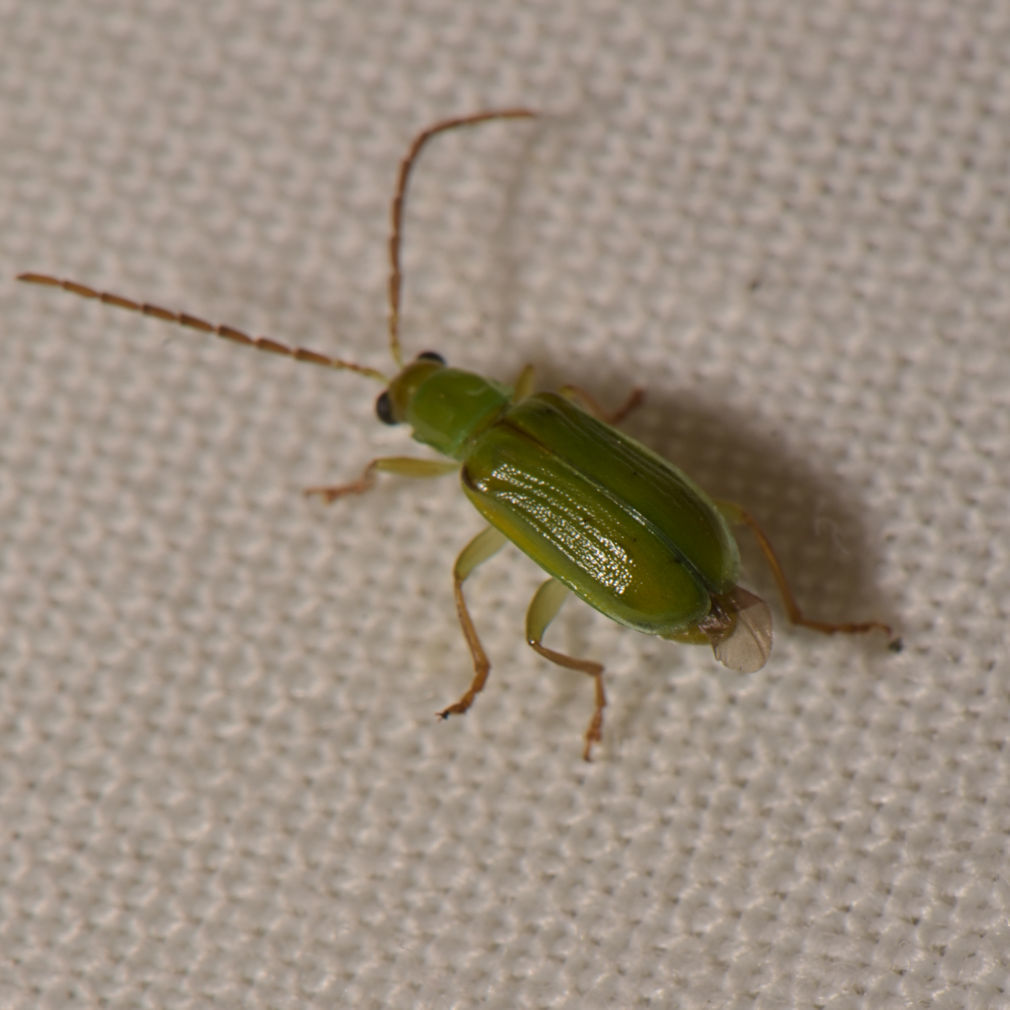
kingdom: Animalia
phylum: Arthropoda
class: Insecta
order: Coleoptera
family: Chrysomelidae
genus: Diabrotica
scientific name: Diabrotica barberi
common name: Northern corn rootworm
